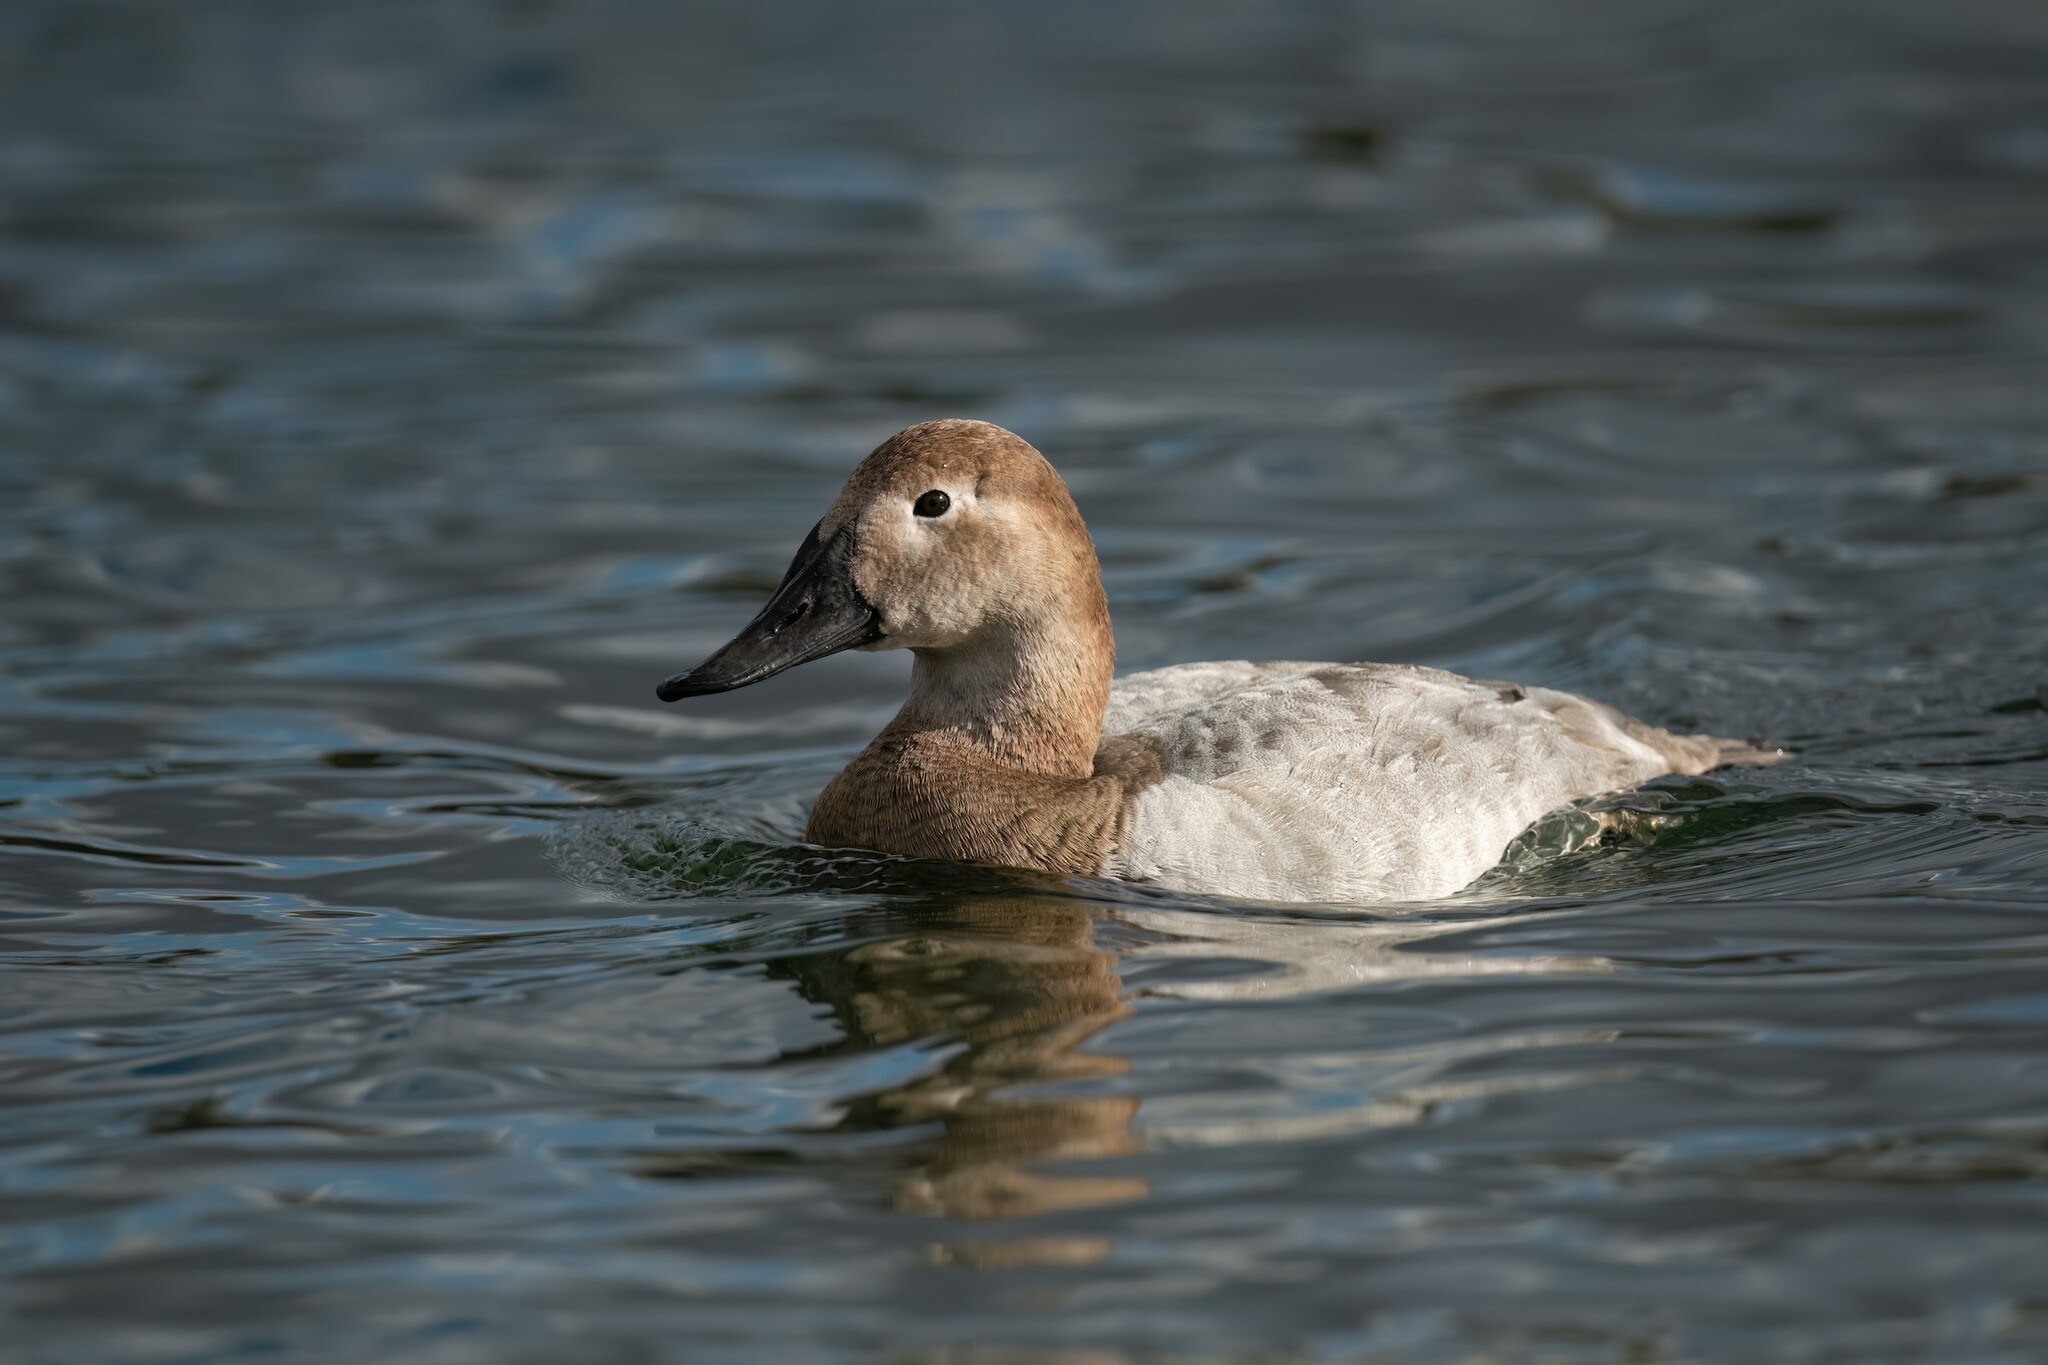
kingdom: Animalia
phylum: Chordata
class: Aves
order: Anseriformes
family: Anatidae
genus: Aythya
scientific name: Aythya valisineria
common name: Canvasback
